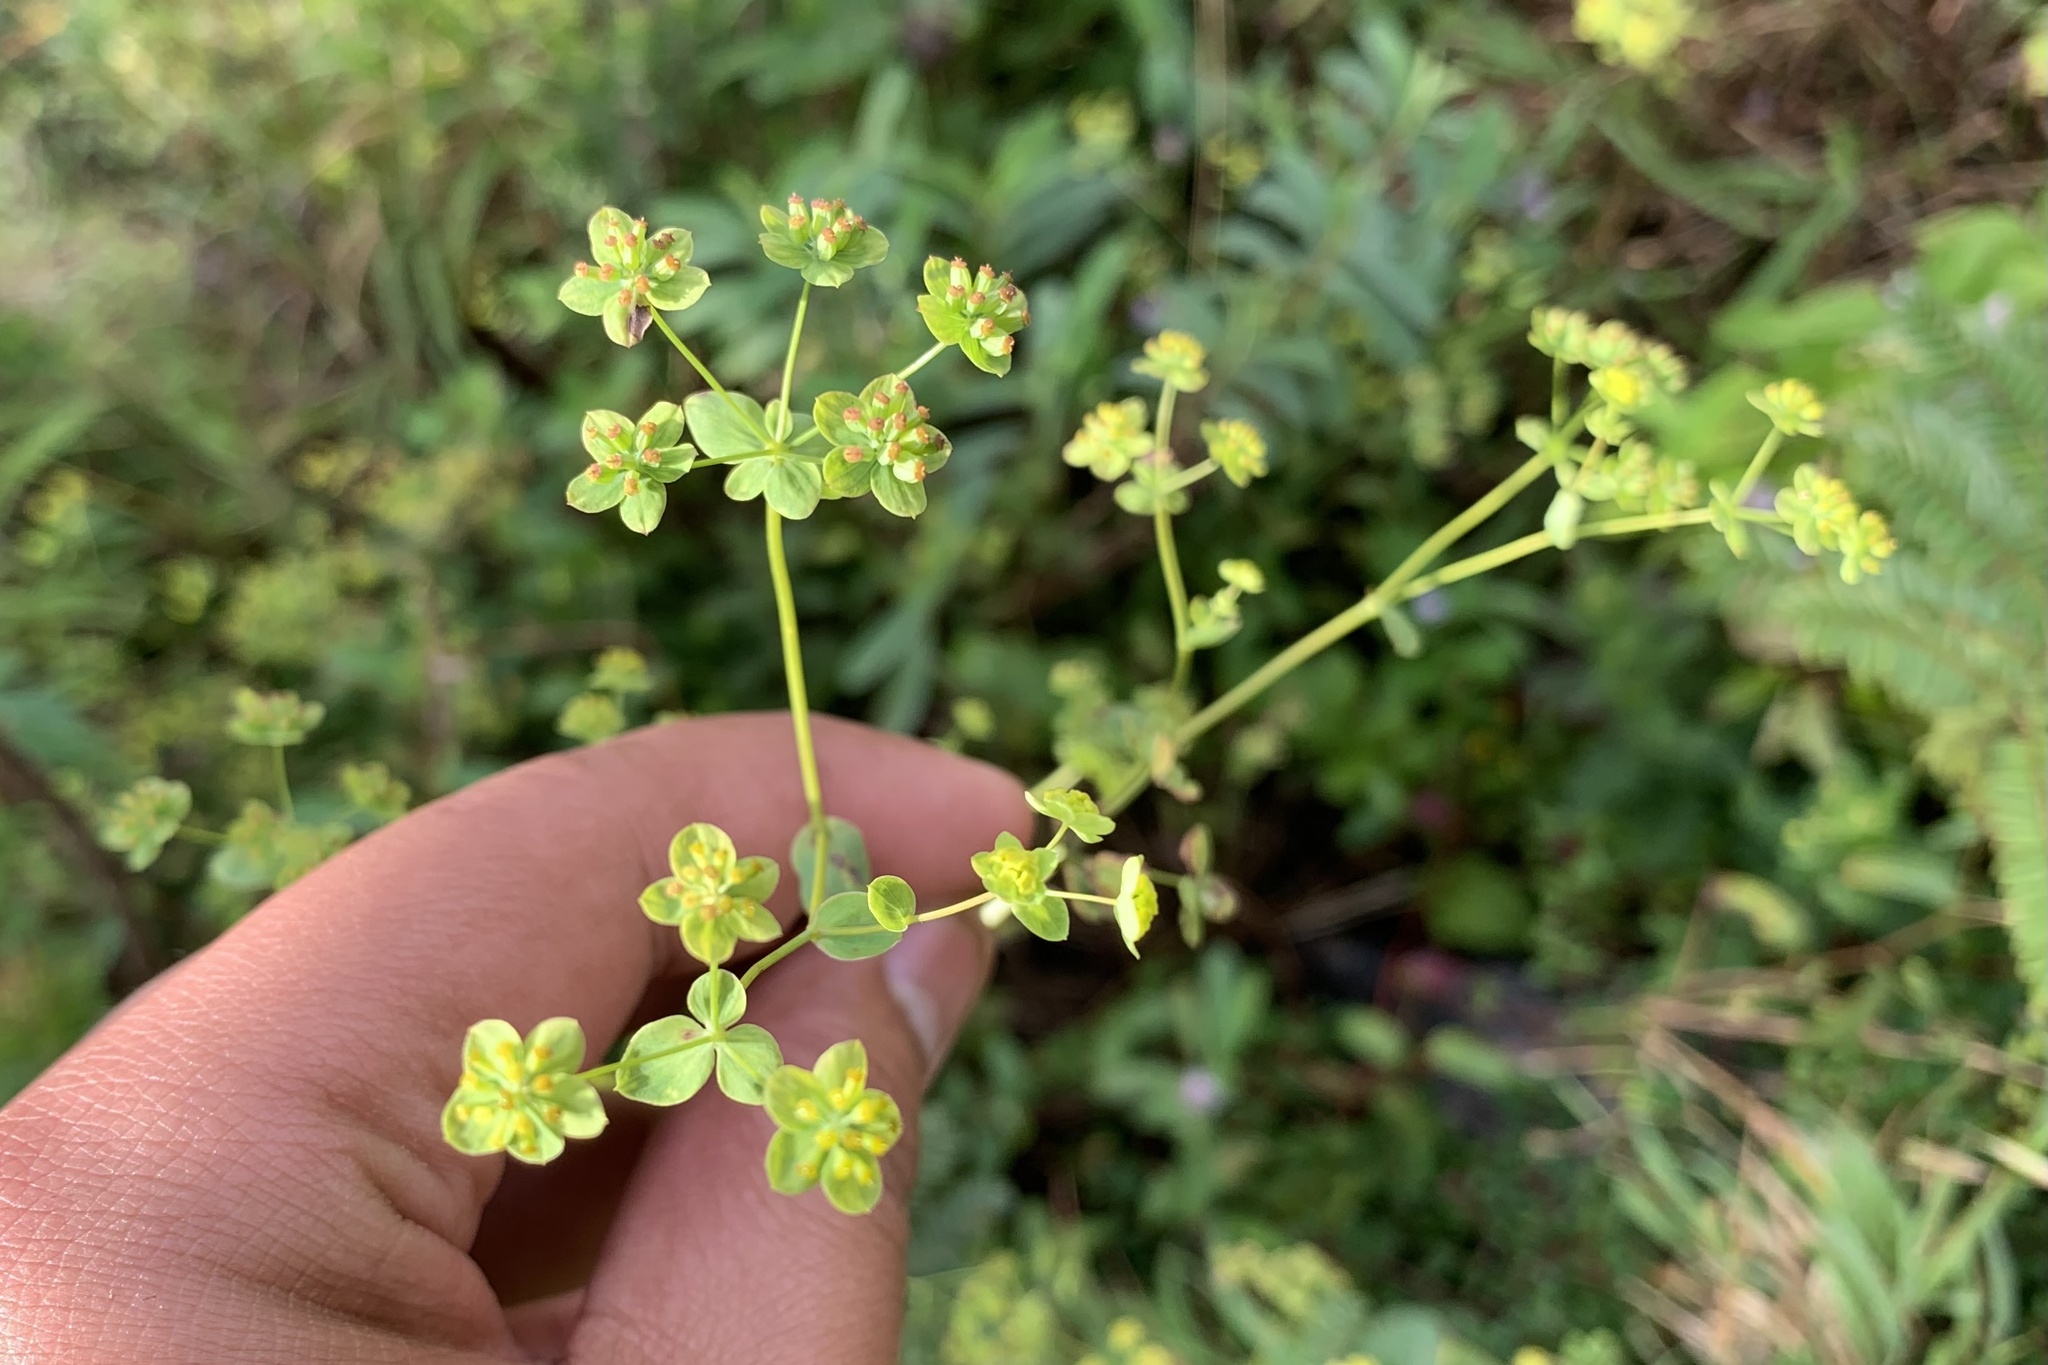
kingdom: Plantae
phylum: Tracheophyta
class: Magnoliopsida
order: Apiales
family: Apiaceae
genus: Bupleurum
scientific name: Bupleurum hamiltonii
